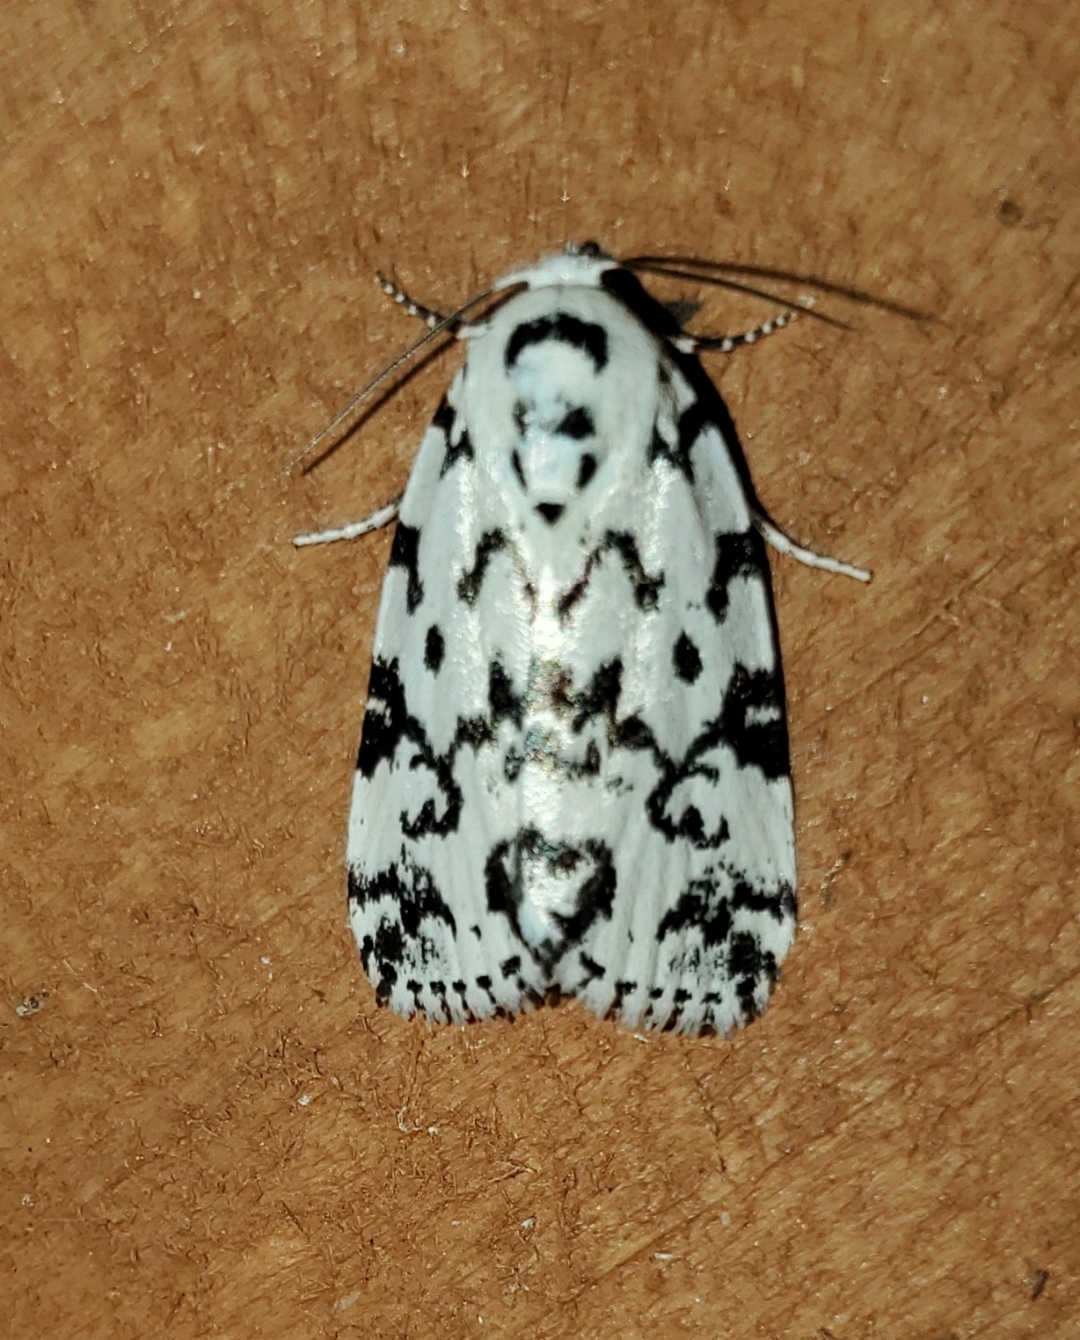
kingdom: Animalia
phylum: Arthropoda
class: Insecta
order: Lepidoptera
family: Noctuidae
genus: Polygrammate
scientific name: Polygrammate hebraeicum
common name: Hebrew moth
